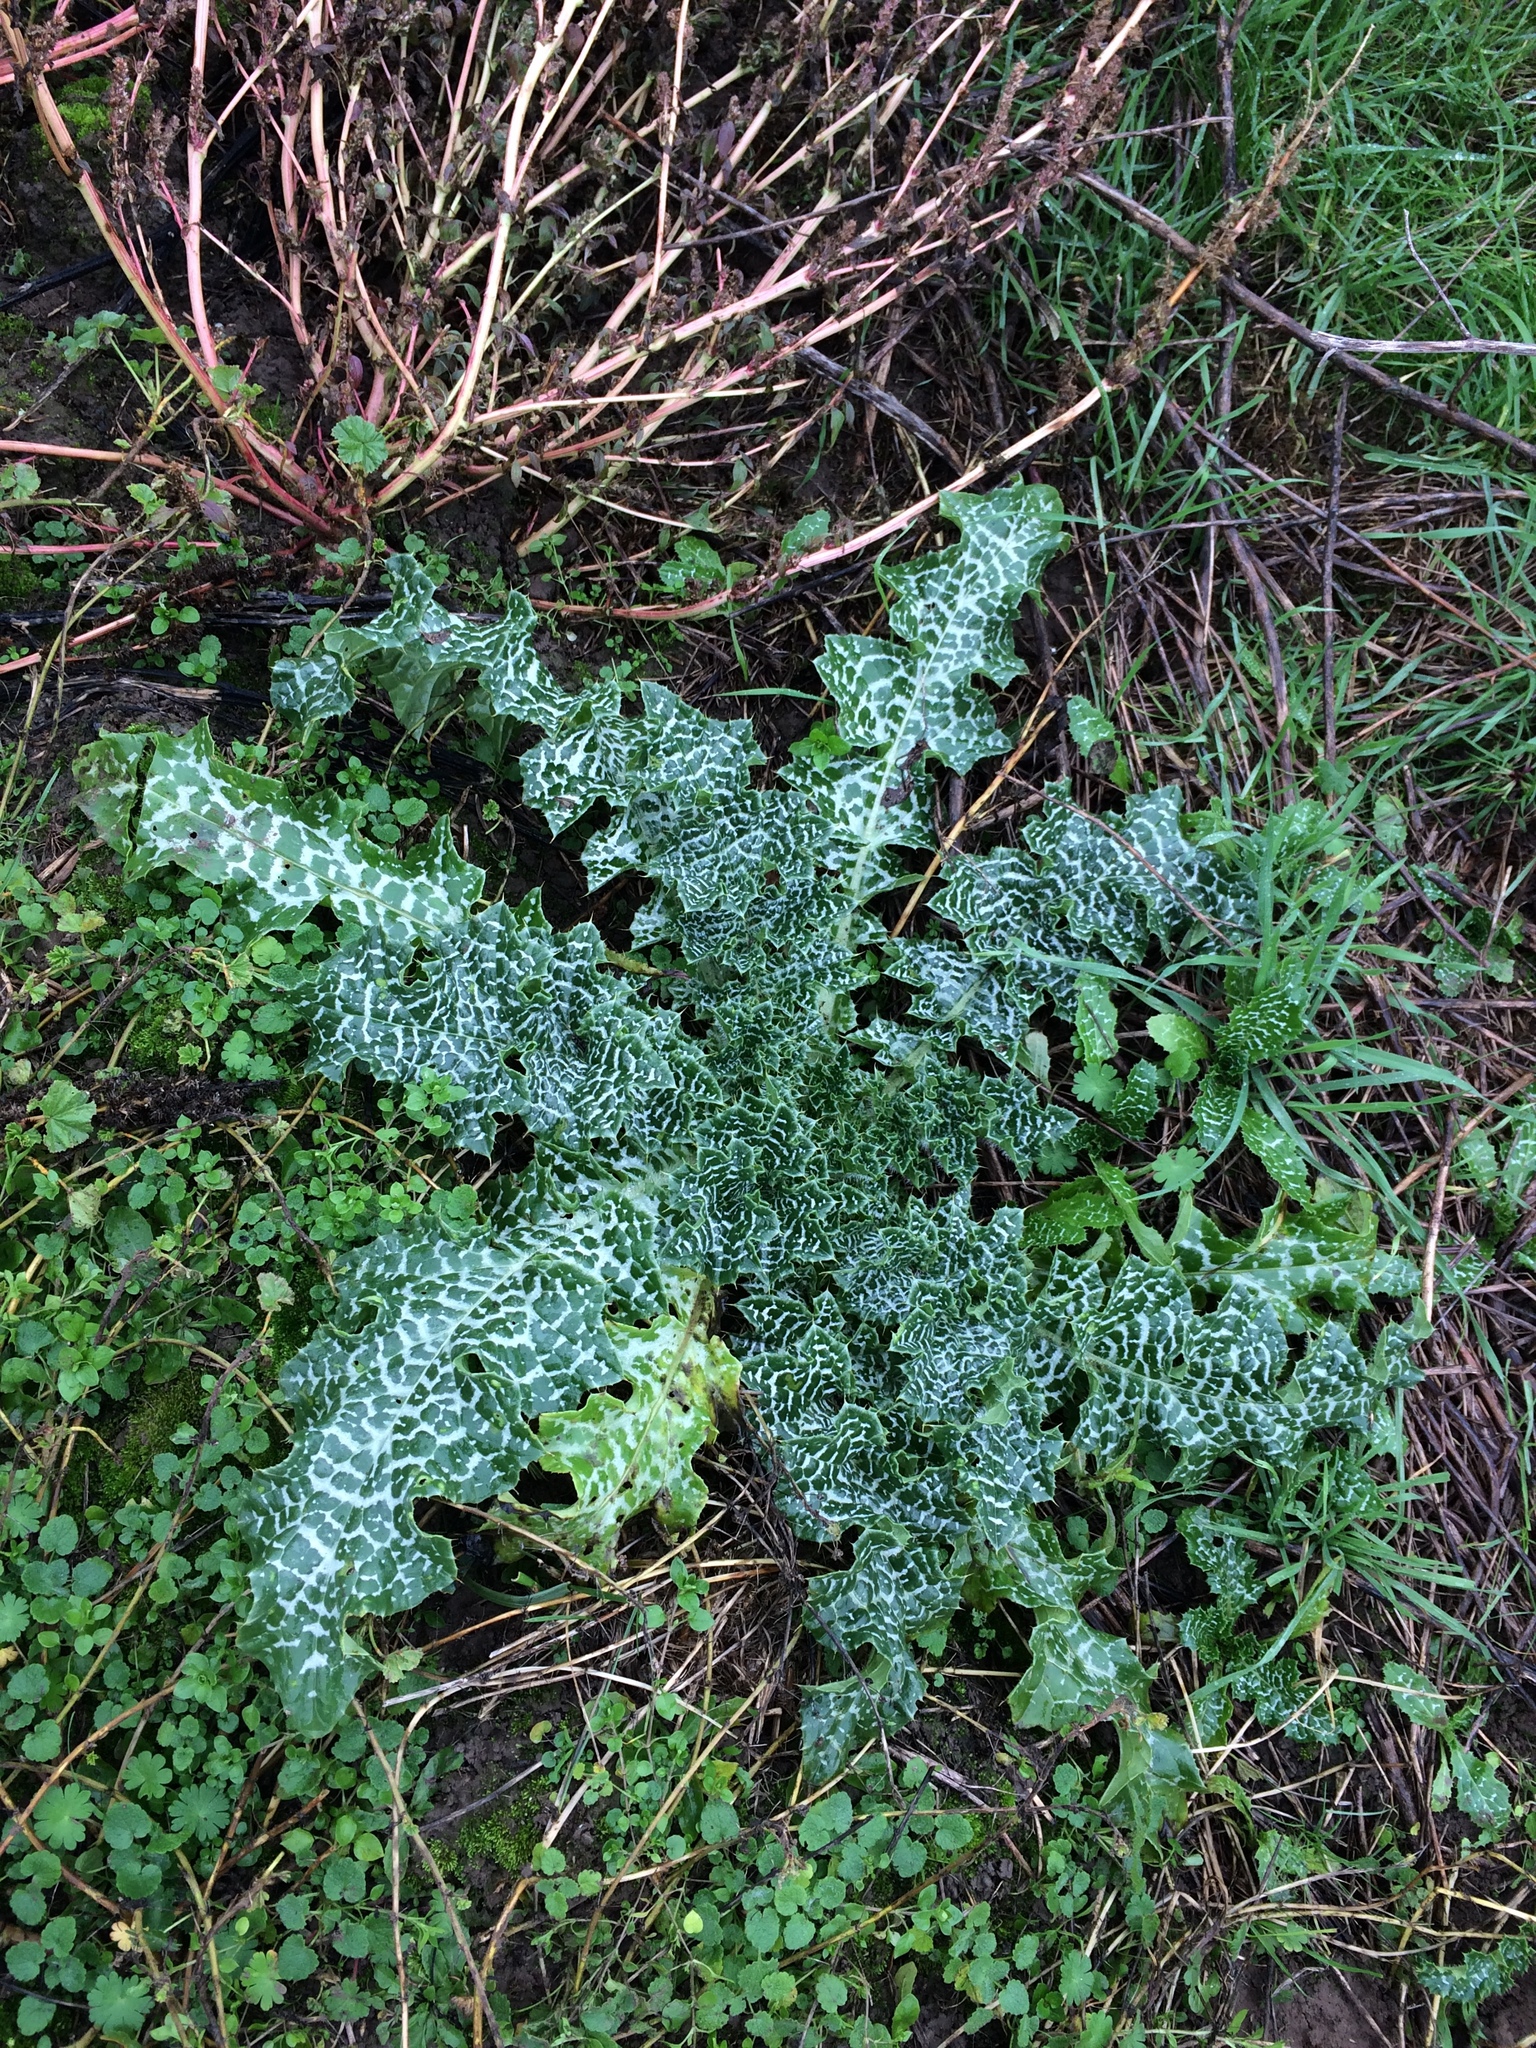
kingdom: Plantae
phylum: Tracheophyta
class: Magnoliopsida
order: Asterales
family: Asteraceae
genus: Silybum
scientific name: Silybum marianum
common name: Milk thistle
